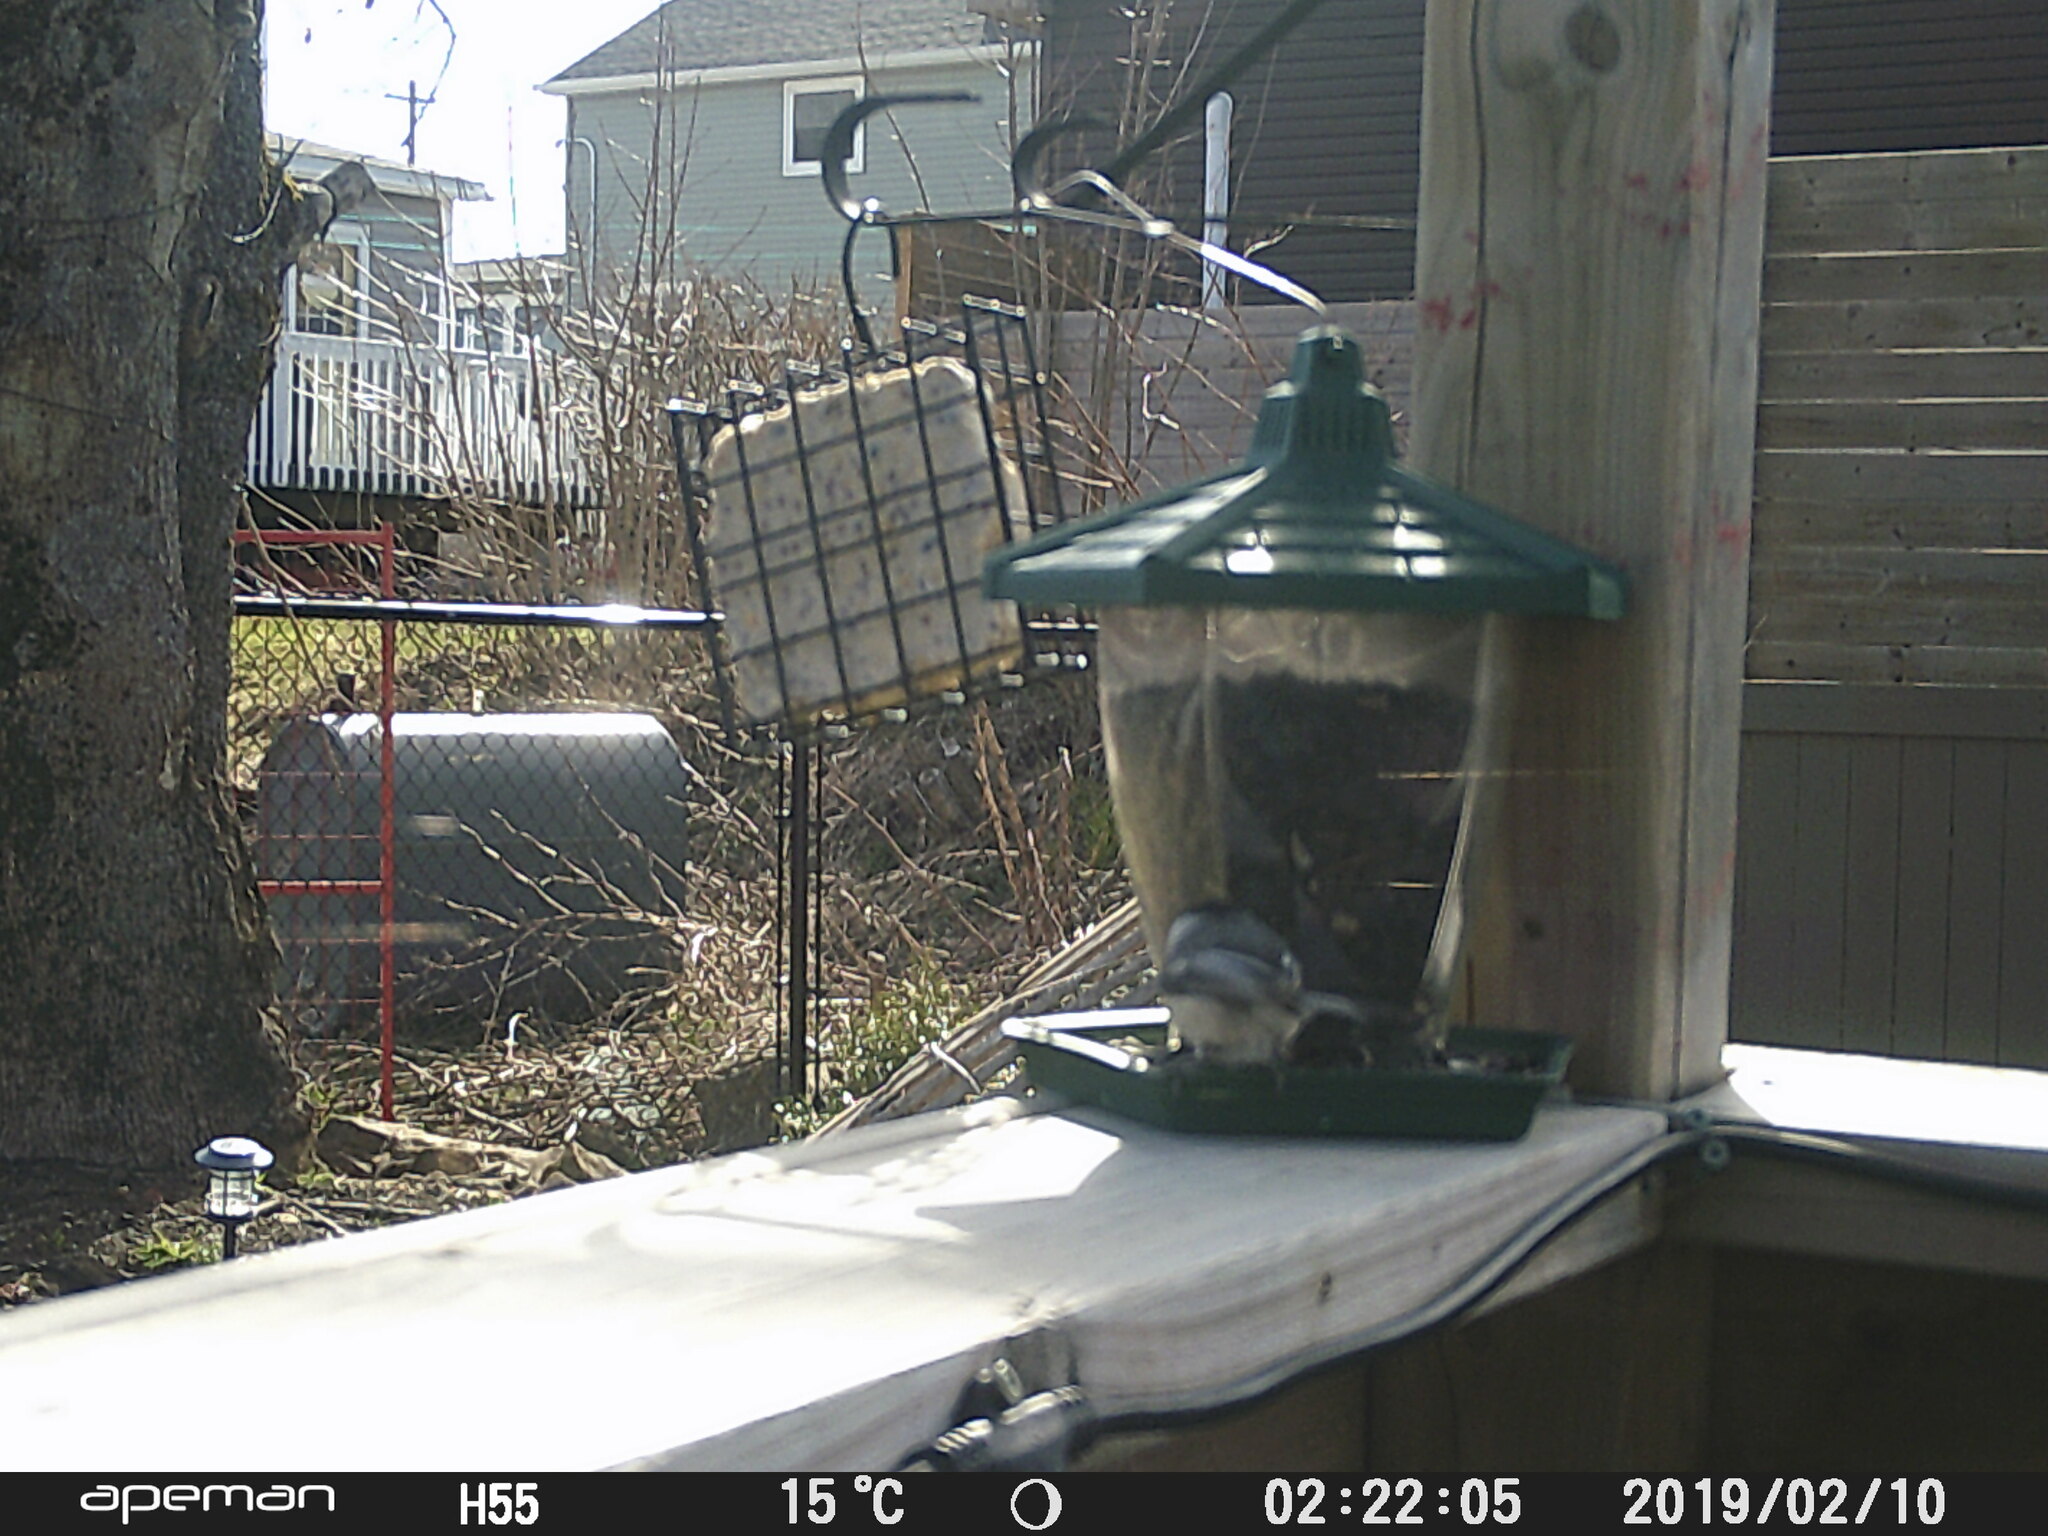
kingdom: Animalia
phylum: Chordata
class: Aves
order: Passeriformes
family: Paridae
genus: Poecile
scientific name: Poecile atricapillus
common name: Black-capped chickadee
